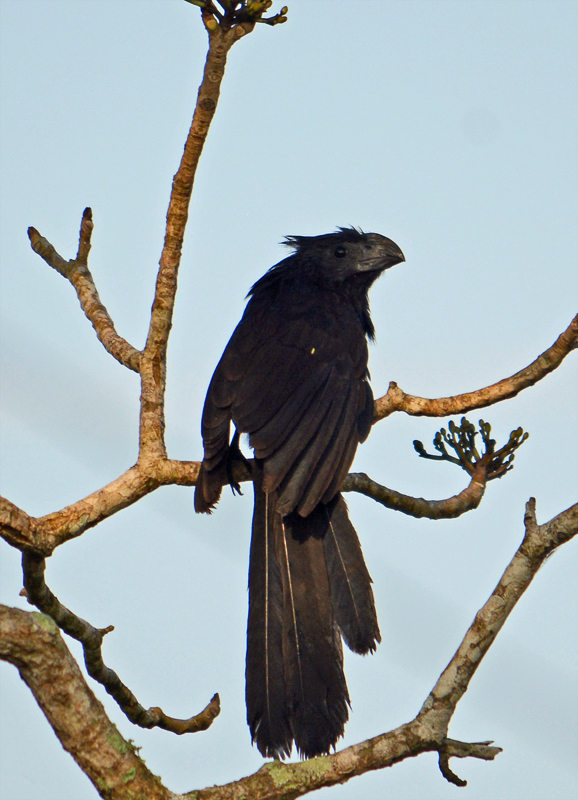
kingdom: Animalia
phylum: Chordata
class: Aves
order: Cuculiformes
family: Cuculidae
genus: Crotophaga
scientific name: Crotophaga sulcirostris
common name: Groove-billed ani
